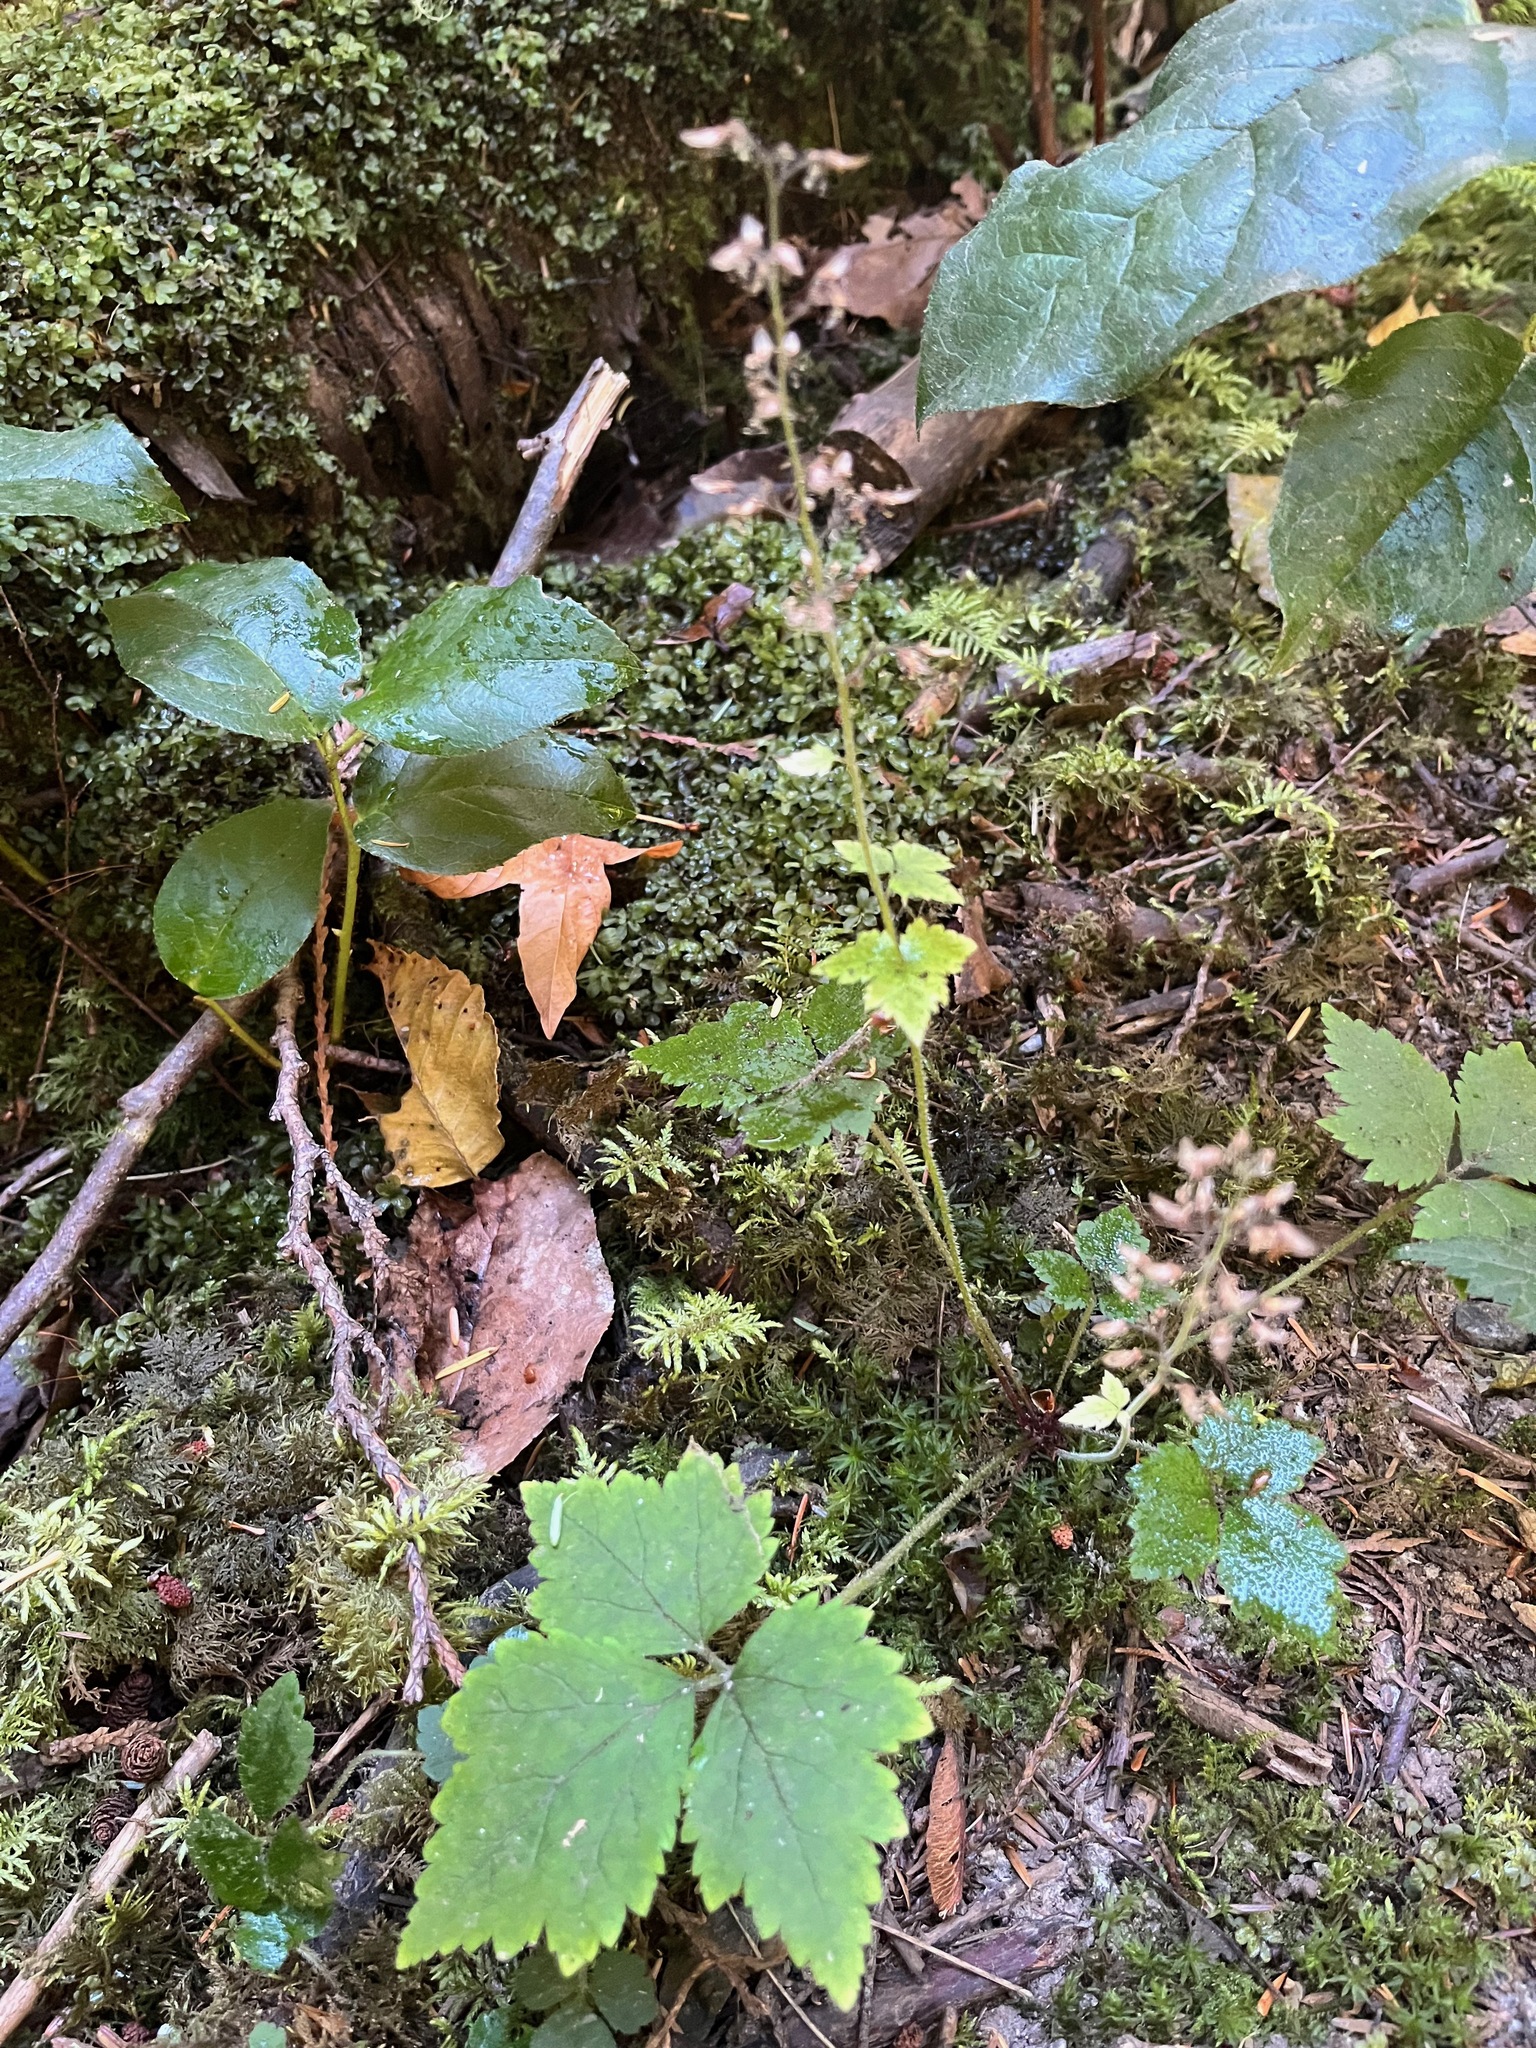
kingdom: Plantae
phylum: Tracheophyta
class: Magnoliopsida
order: Saxifragales
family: Saxifragaceae
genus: Tiarella
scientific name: Tiarella trifoliata
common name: Sugar-scoop
